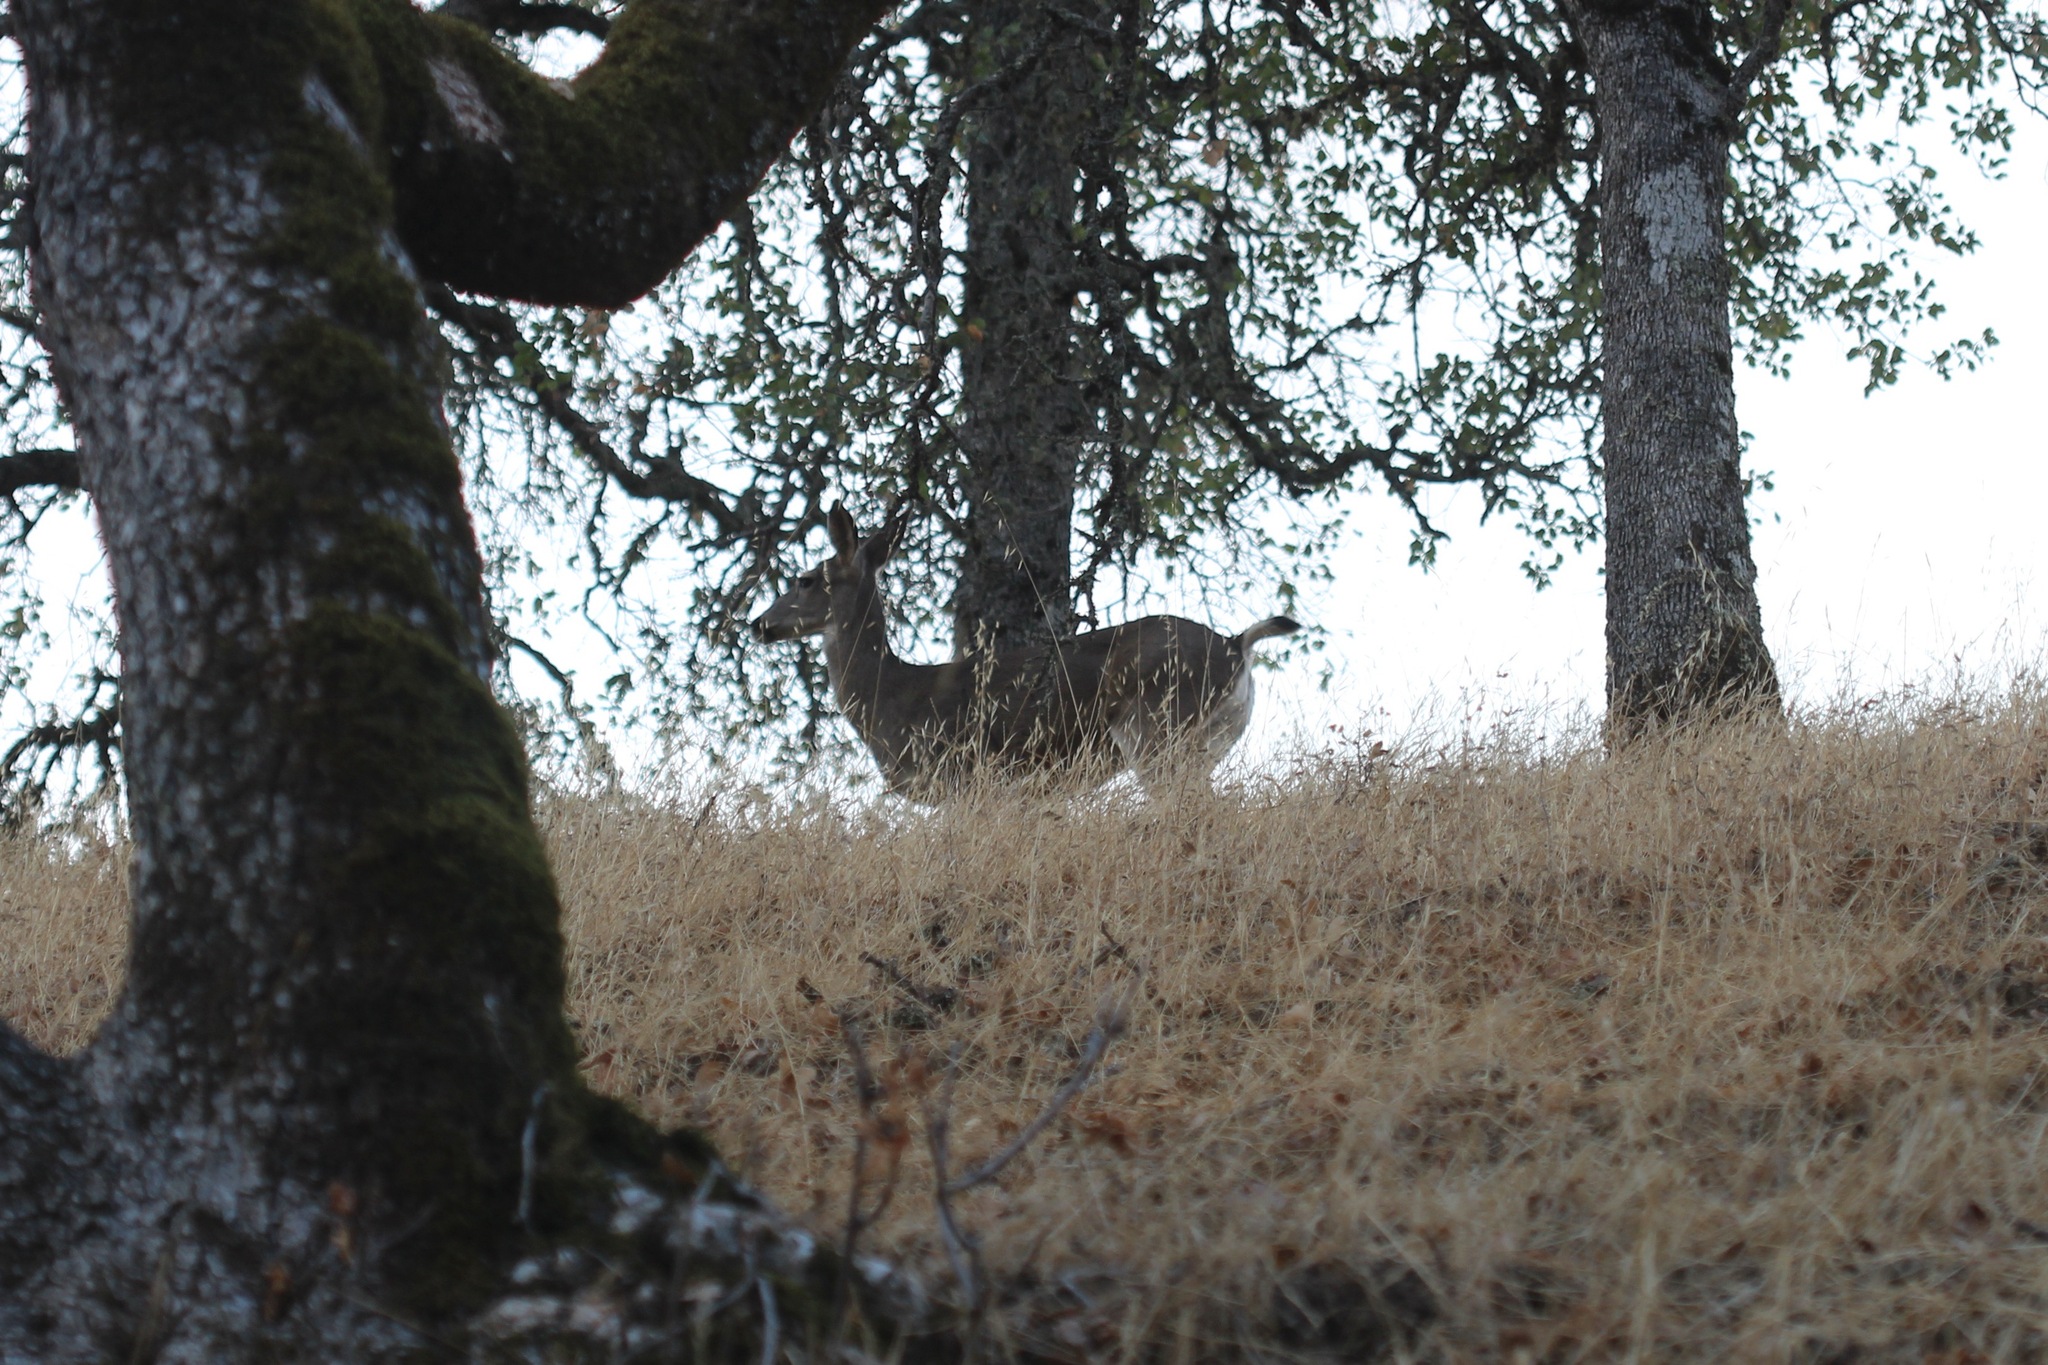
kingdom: Animalia
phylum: Chordata
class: Mammalia
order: Artiodactyla
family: Cervidae
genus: Odocoileus
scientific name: Odocoileus hemionus
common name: Mule deer
